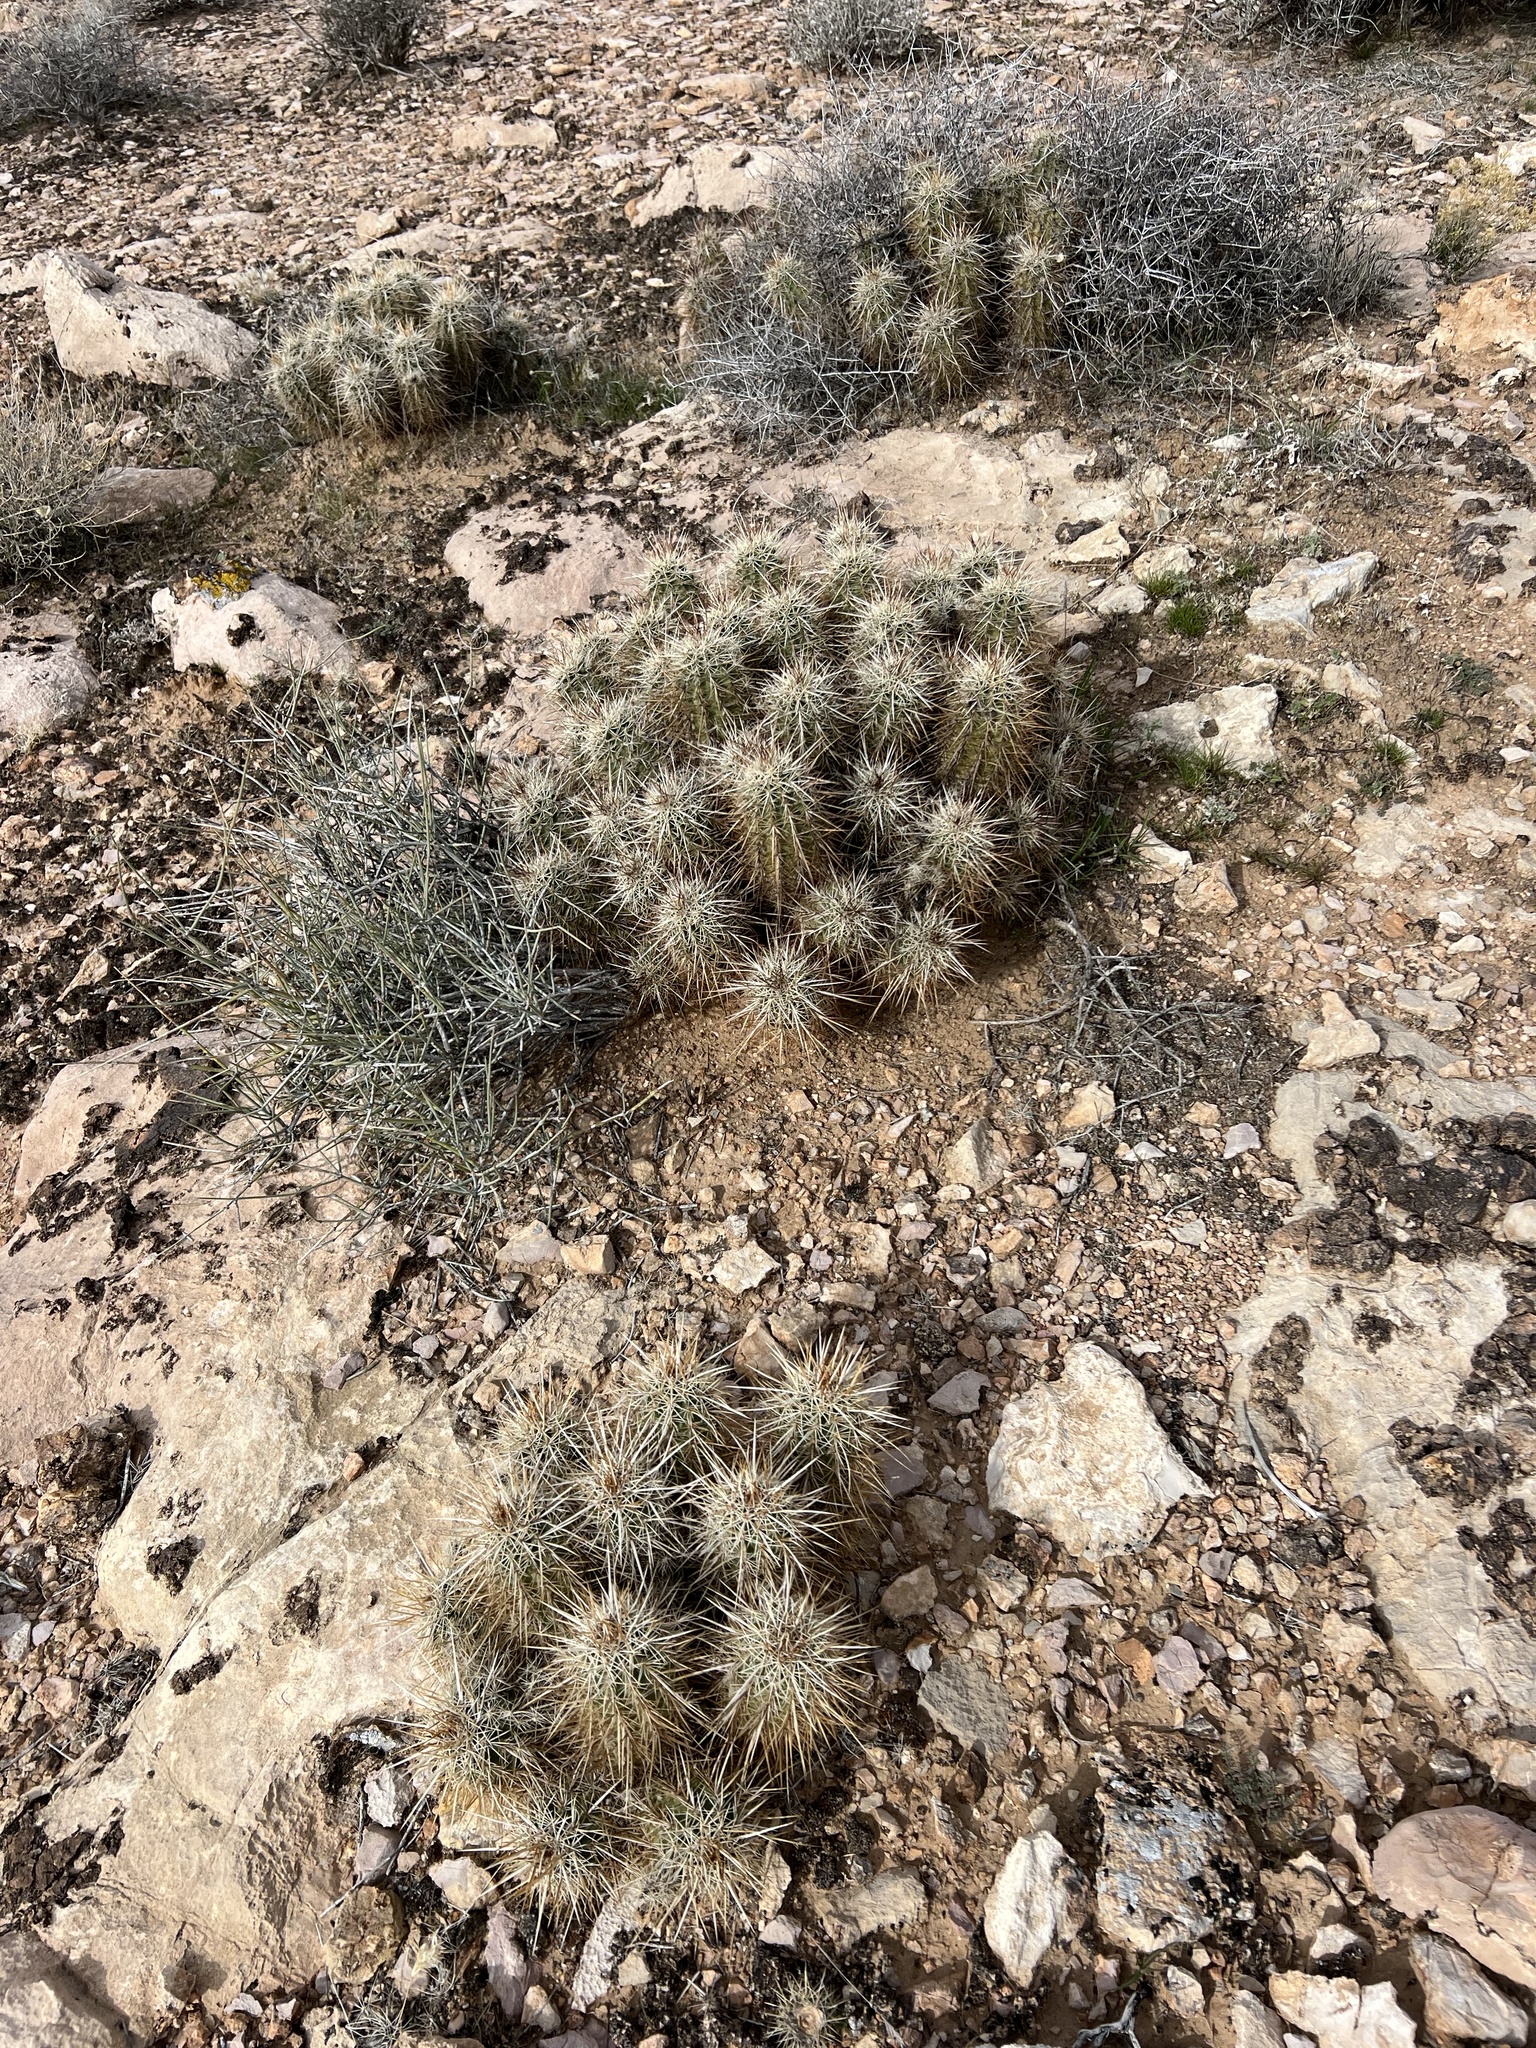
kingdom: Plantae
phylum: Tracheophyta
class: Magnoliopsida
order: Caryophyllales
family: Cactaceae
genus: Echinocereus
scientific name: Echinocereus engelmannii
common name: Engelmann's hedgehog cactus
